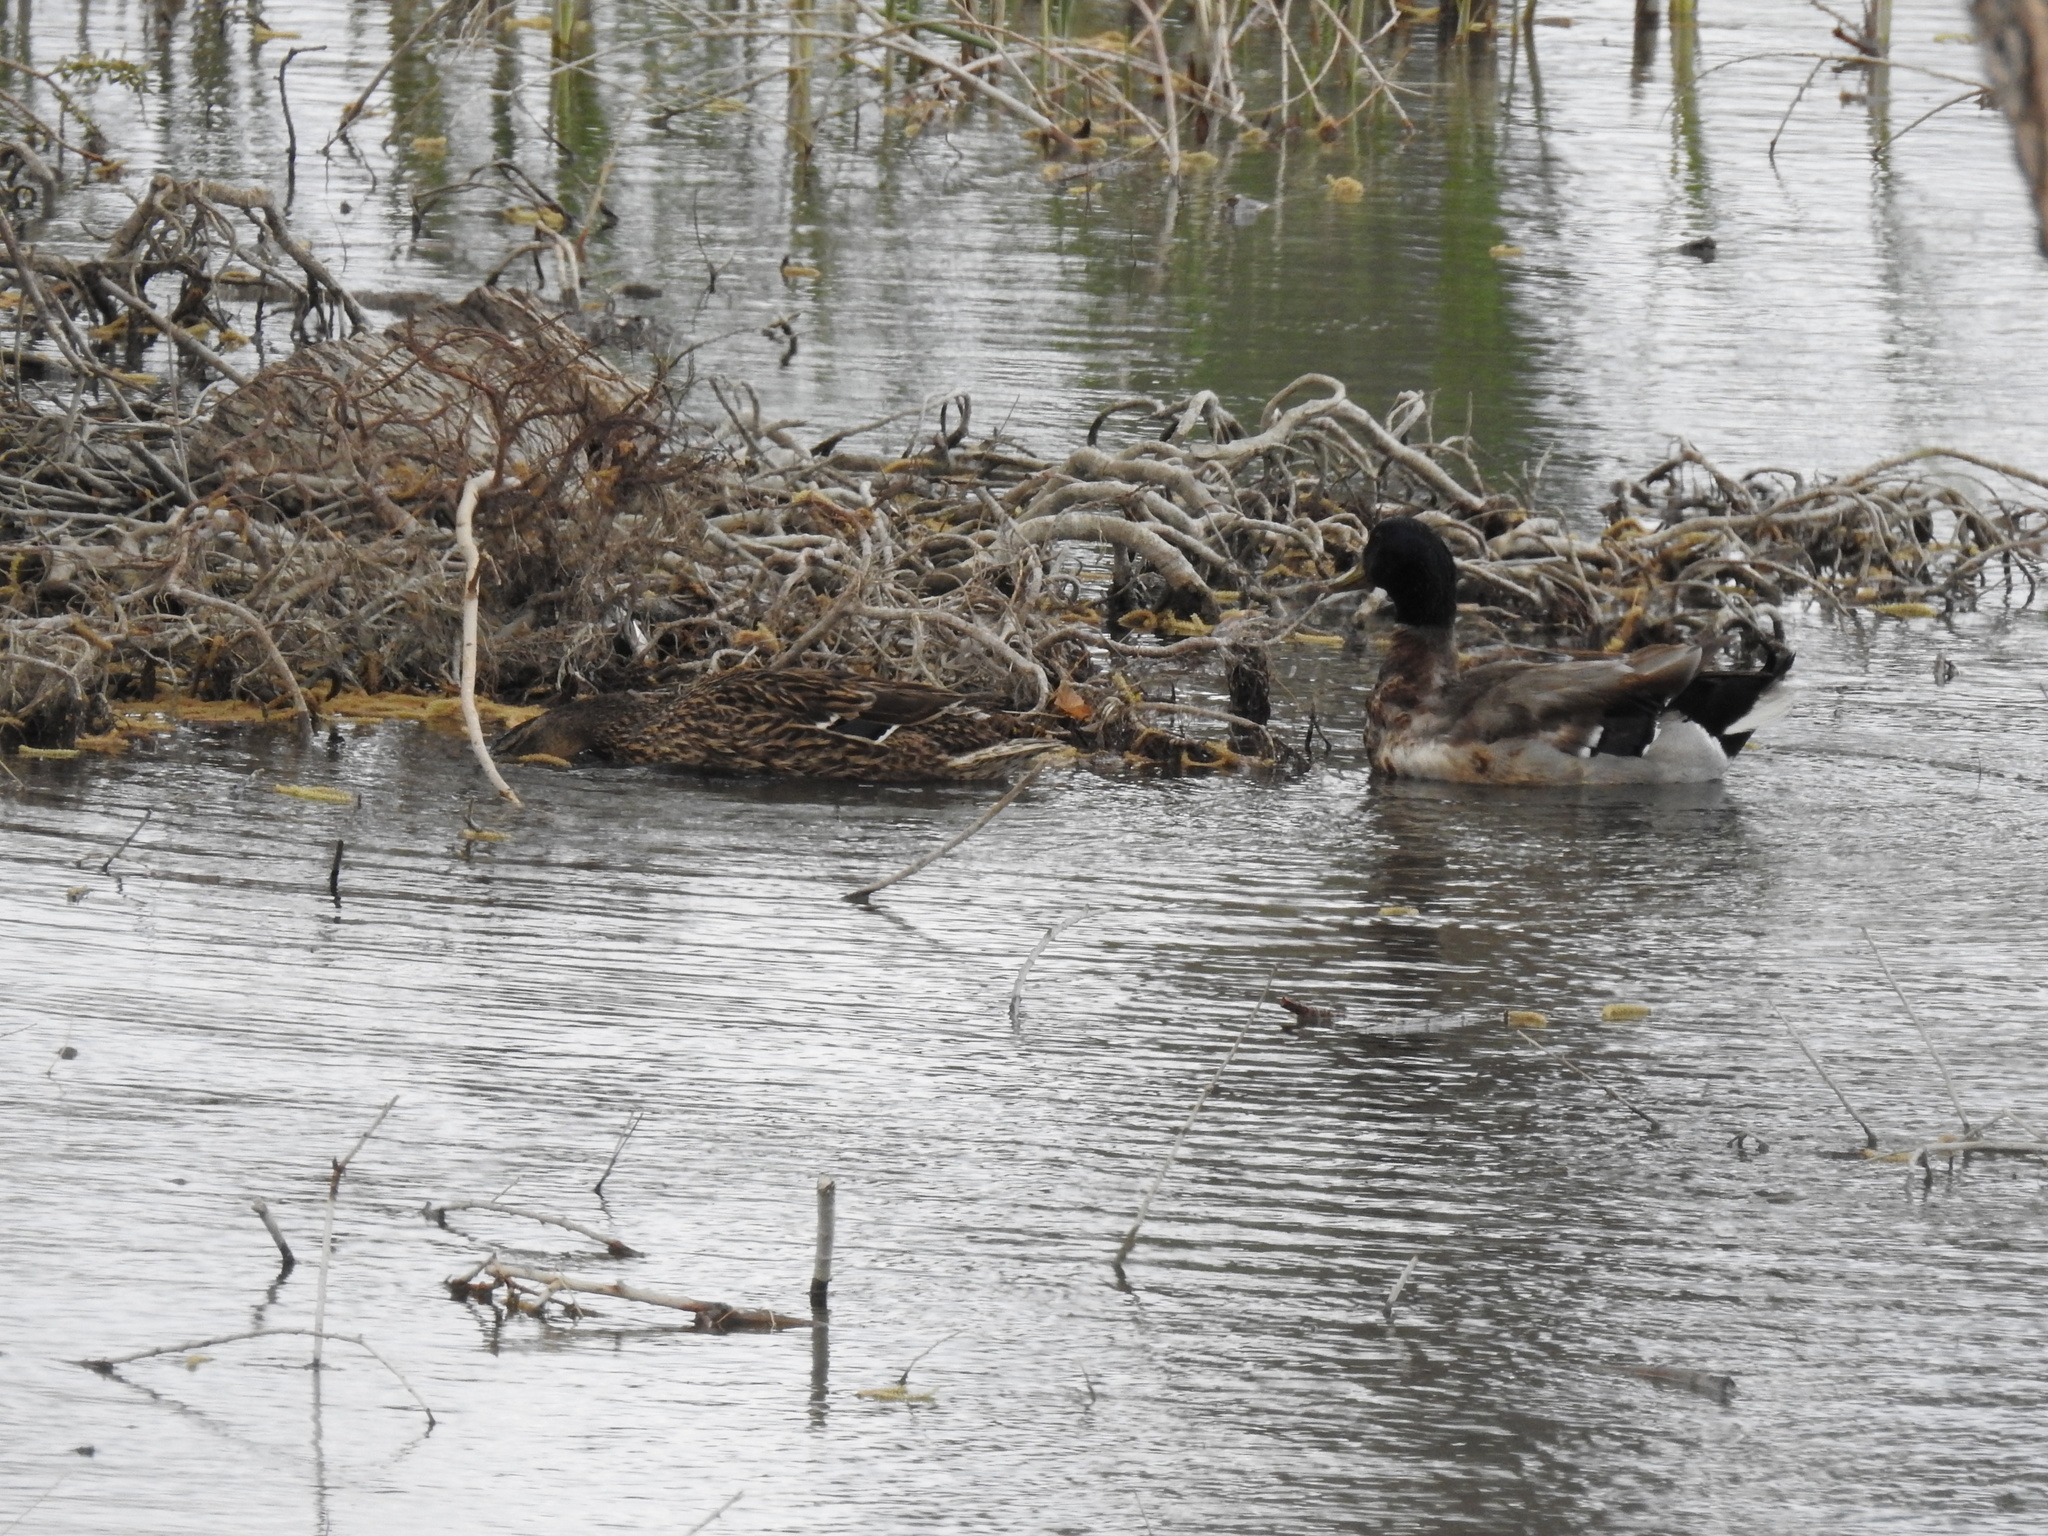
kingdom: Animalia
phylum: Chordata
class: Aves
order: Anseriformes
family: Anatidae
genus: Anas
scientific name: Anas platyrhynchos
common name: Mallard
